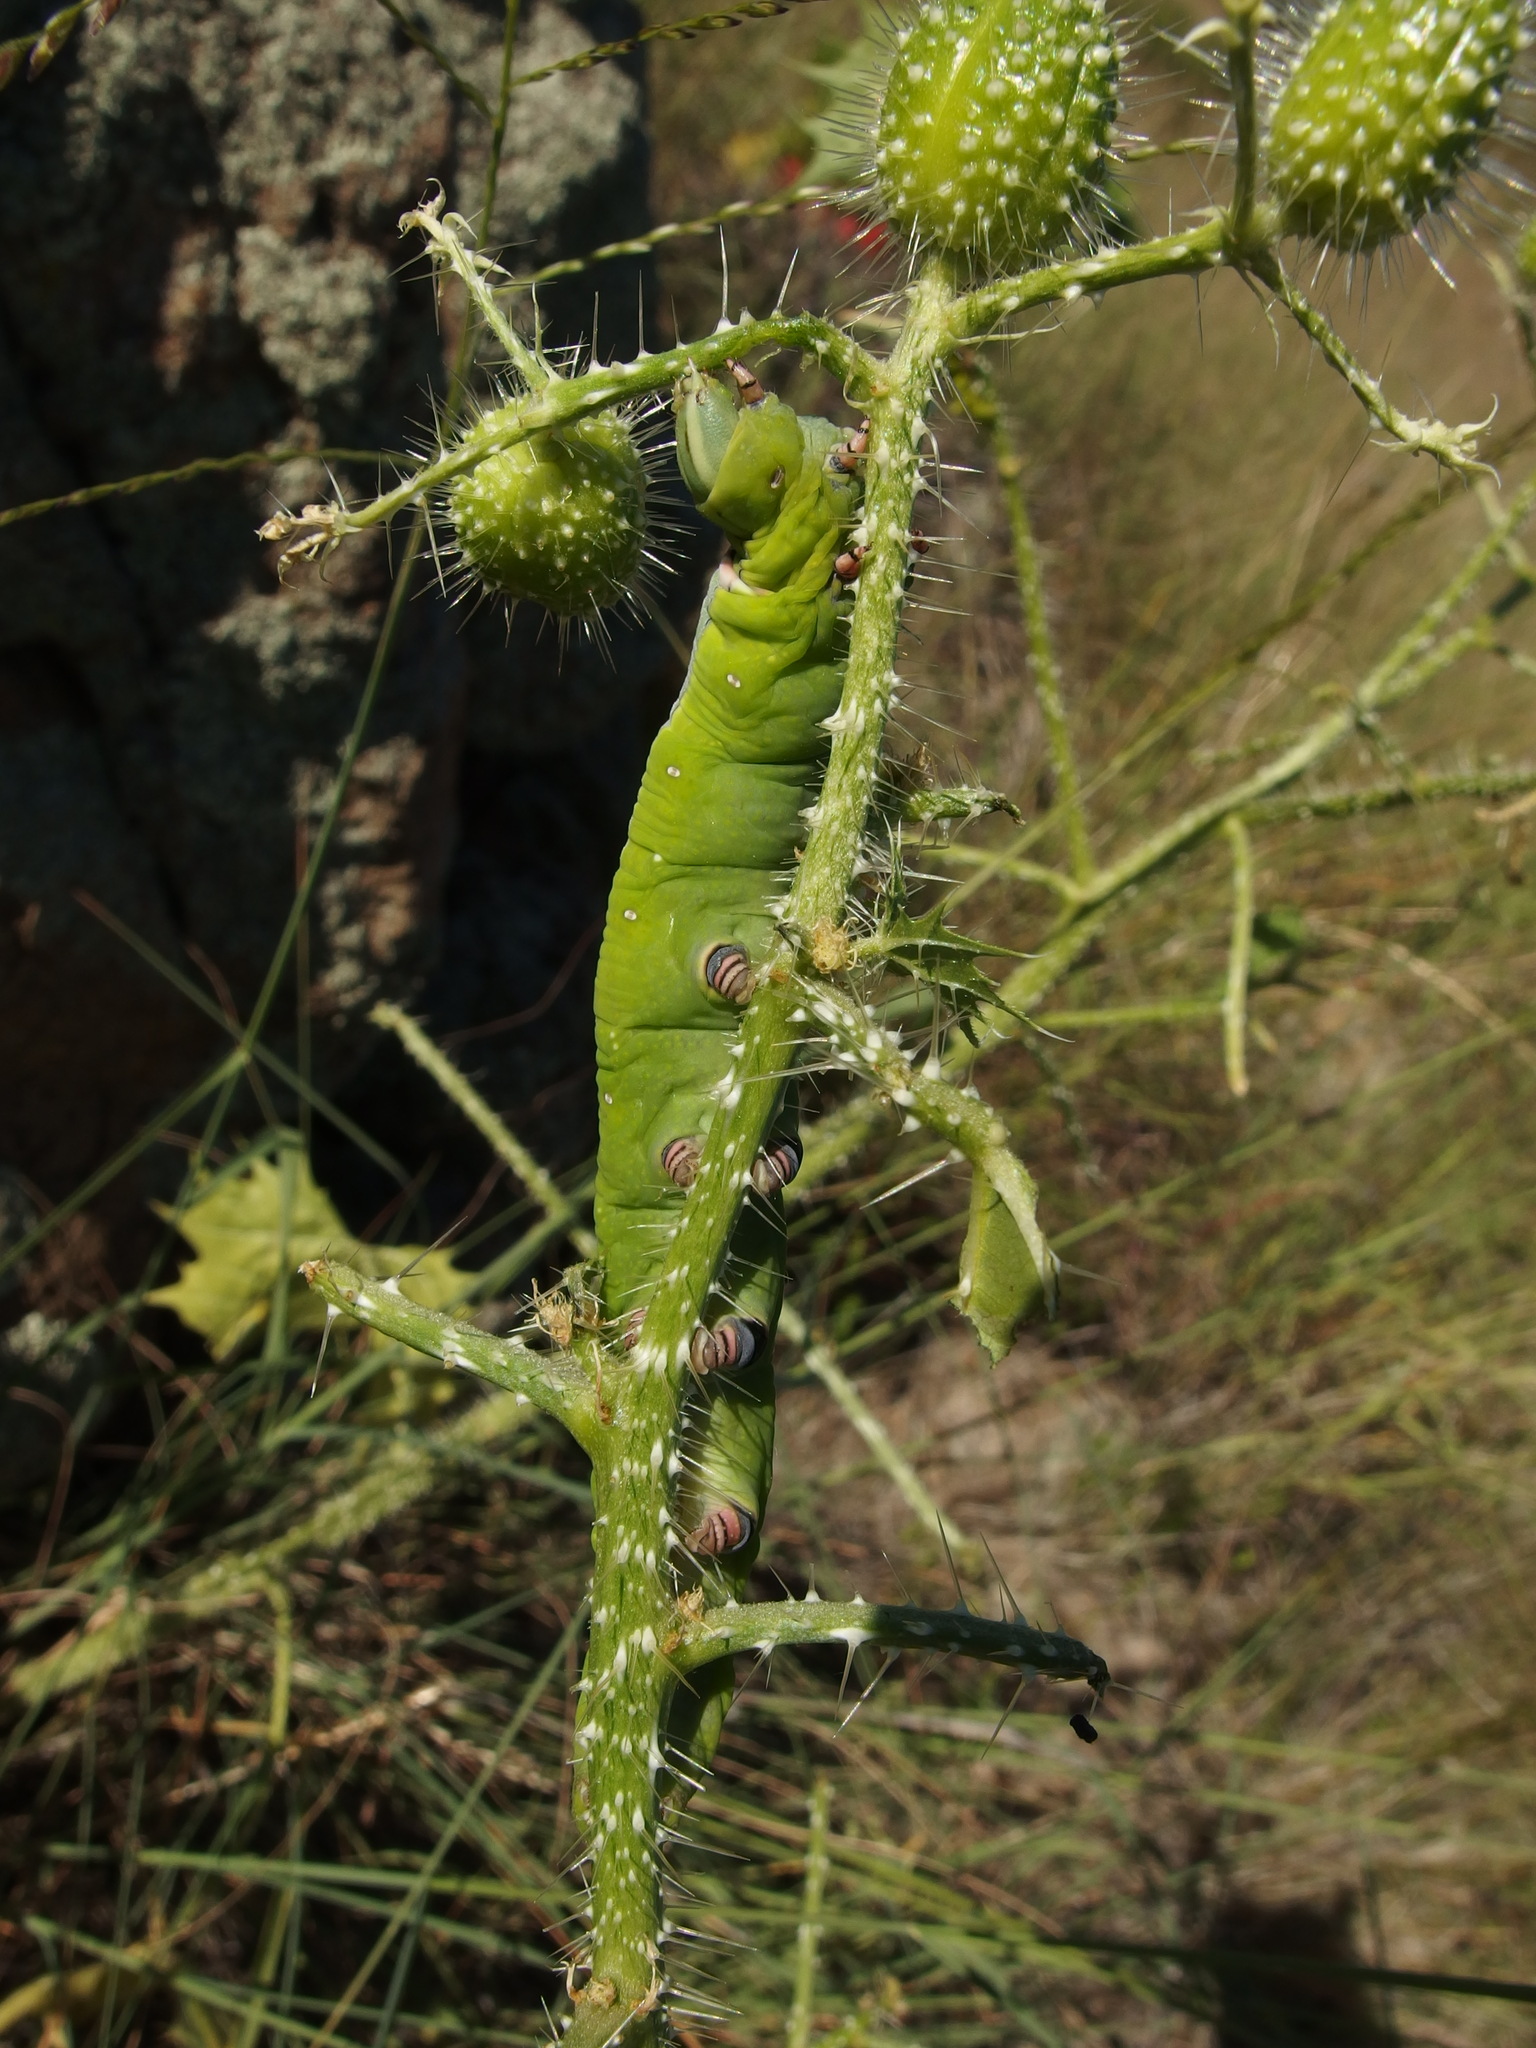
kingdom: Animalia
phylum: Arthropoda
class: Insecta
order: Lepidoptera
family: Sphingidae
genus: Erinnyis
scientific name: Erinnyis ello
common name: Ello sphinx
